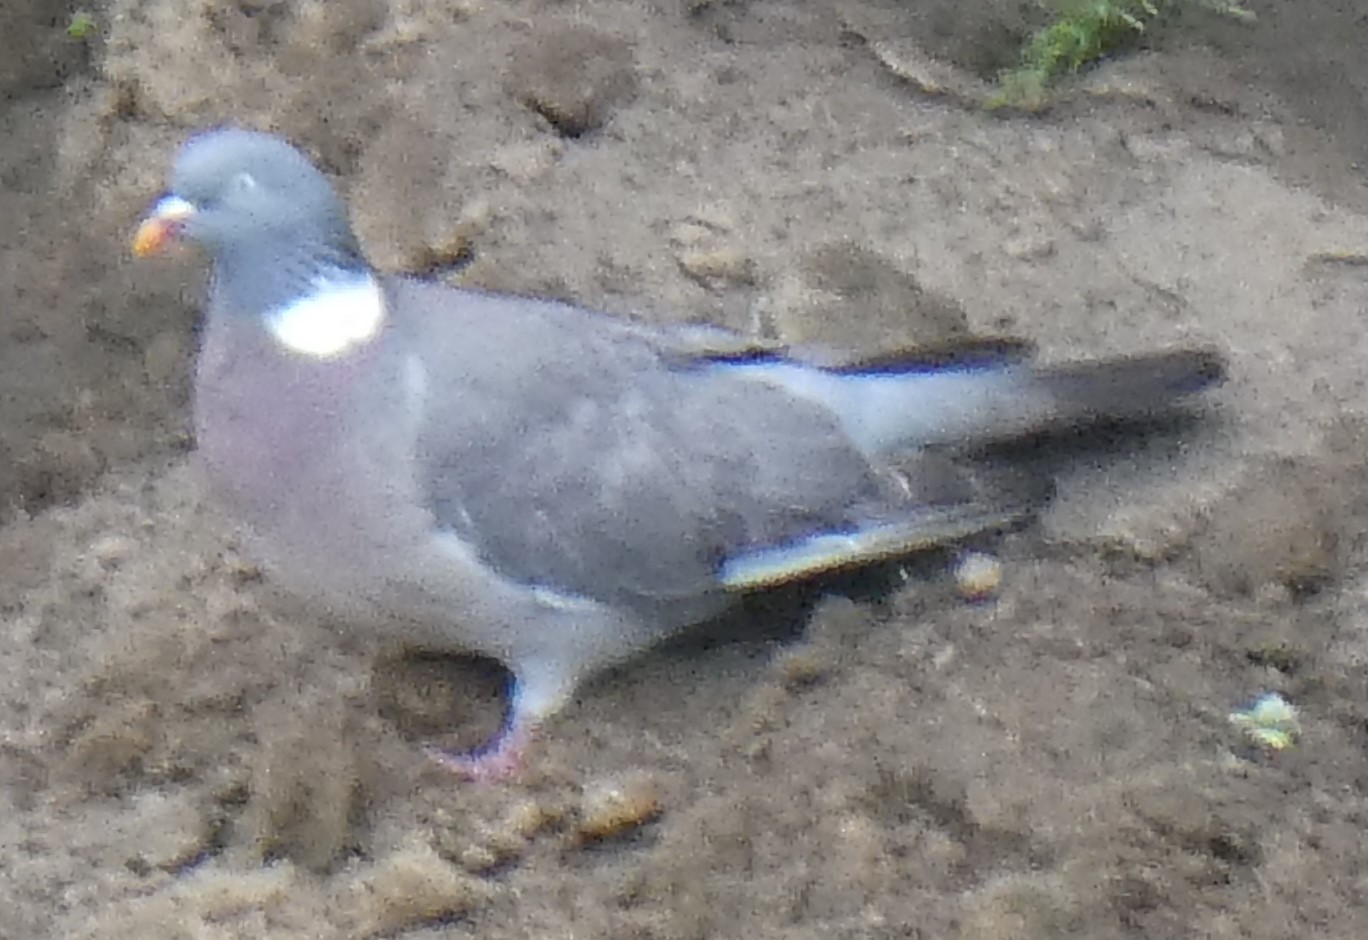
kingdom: Animalia
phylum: Chordata
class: Aves
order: Columbiformes
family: Columbidae
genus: Columba
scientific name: Columba palumbus
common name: Common wood pigeon
